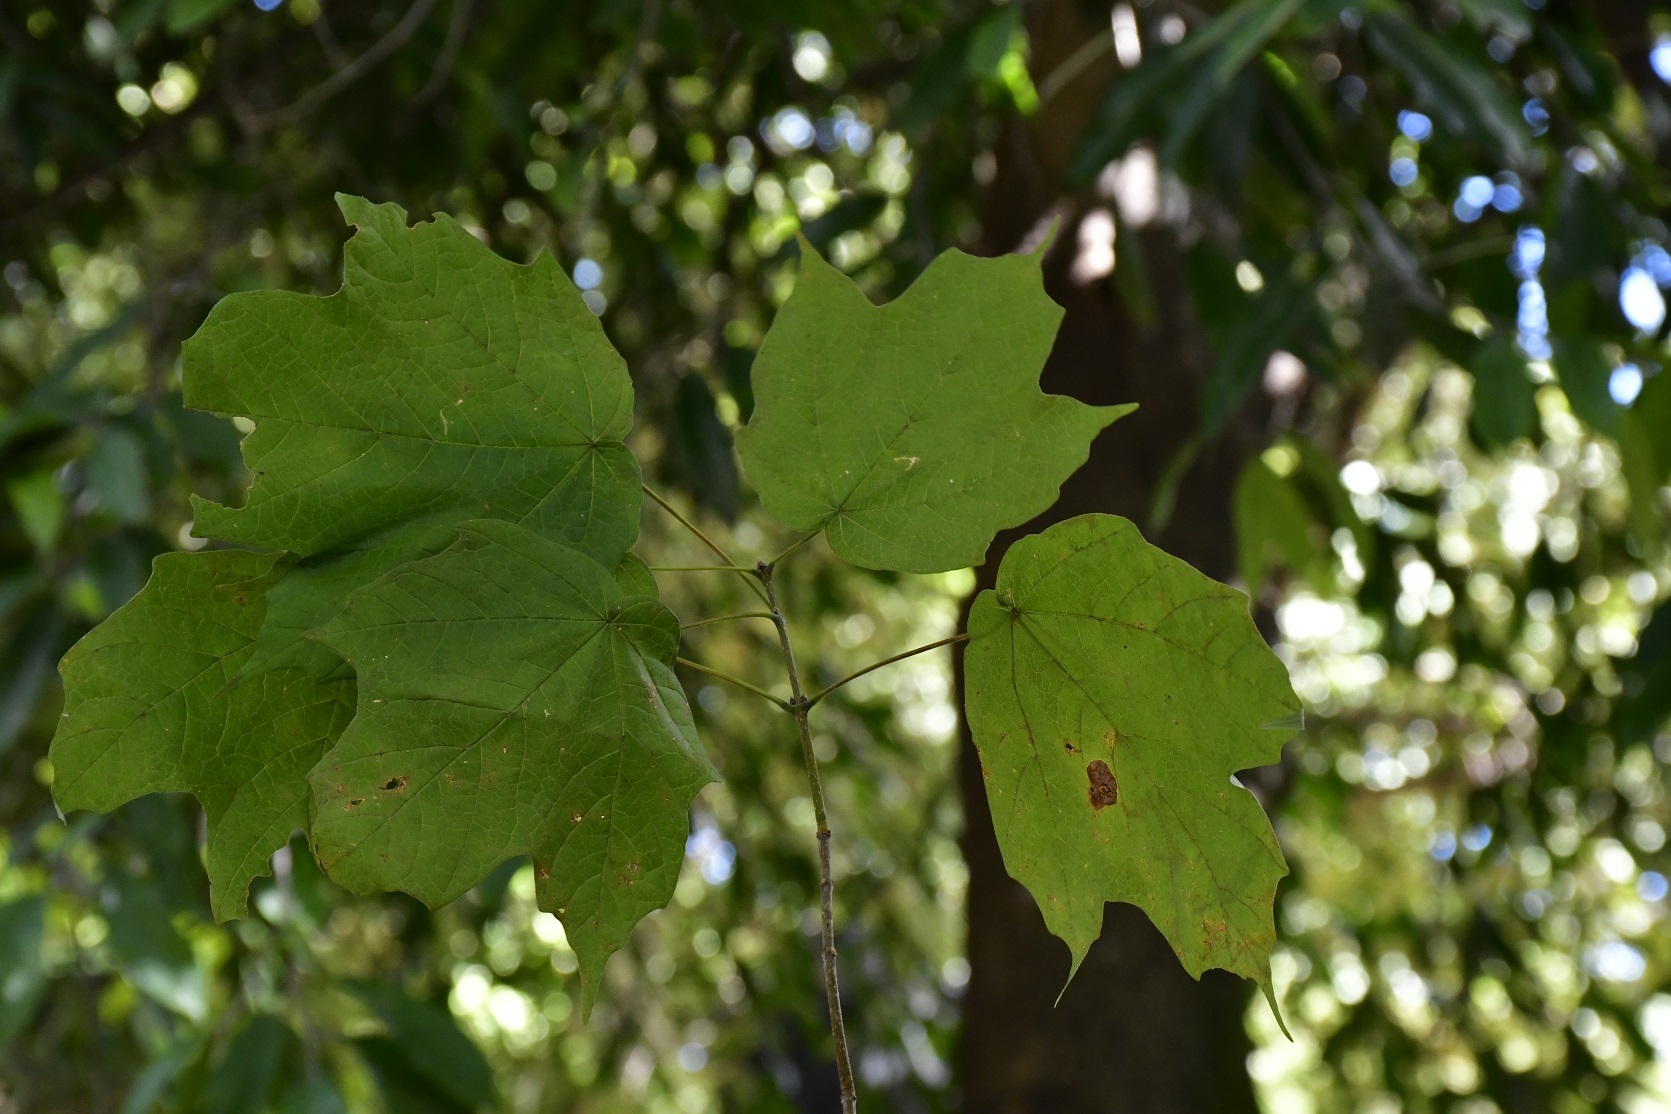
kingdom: Plantae
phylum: Tracheophyta
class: Magnoliopsida
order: Sapindales
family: Sapindaceae
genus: Acer
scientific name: Acer skutchii
